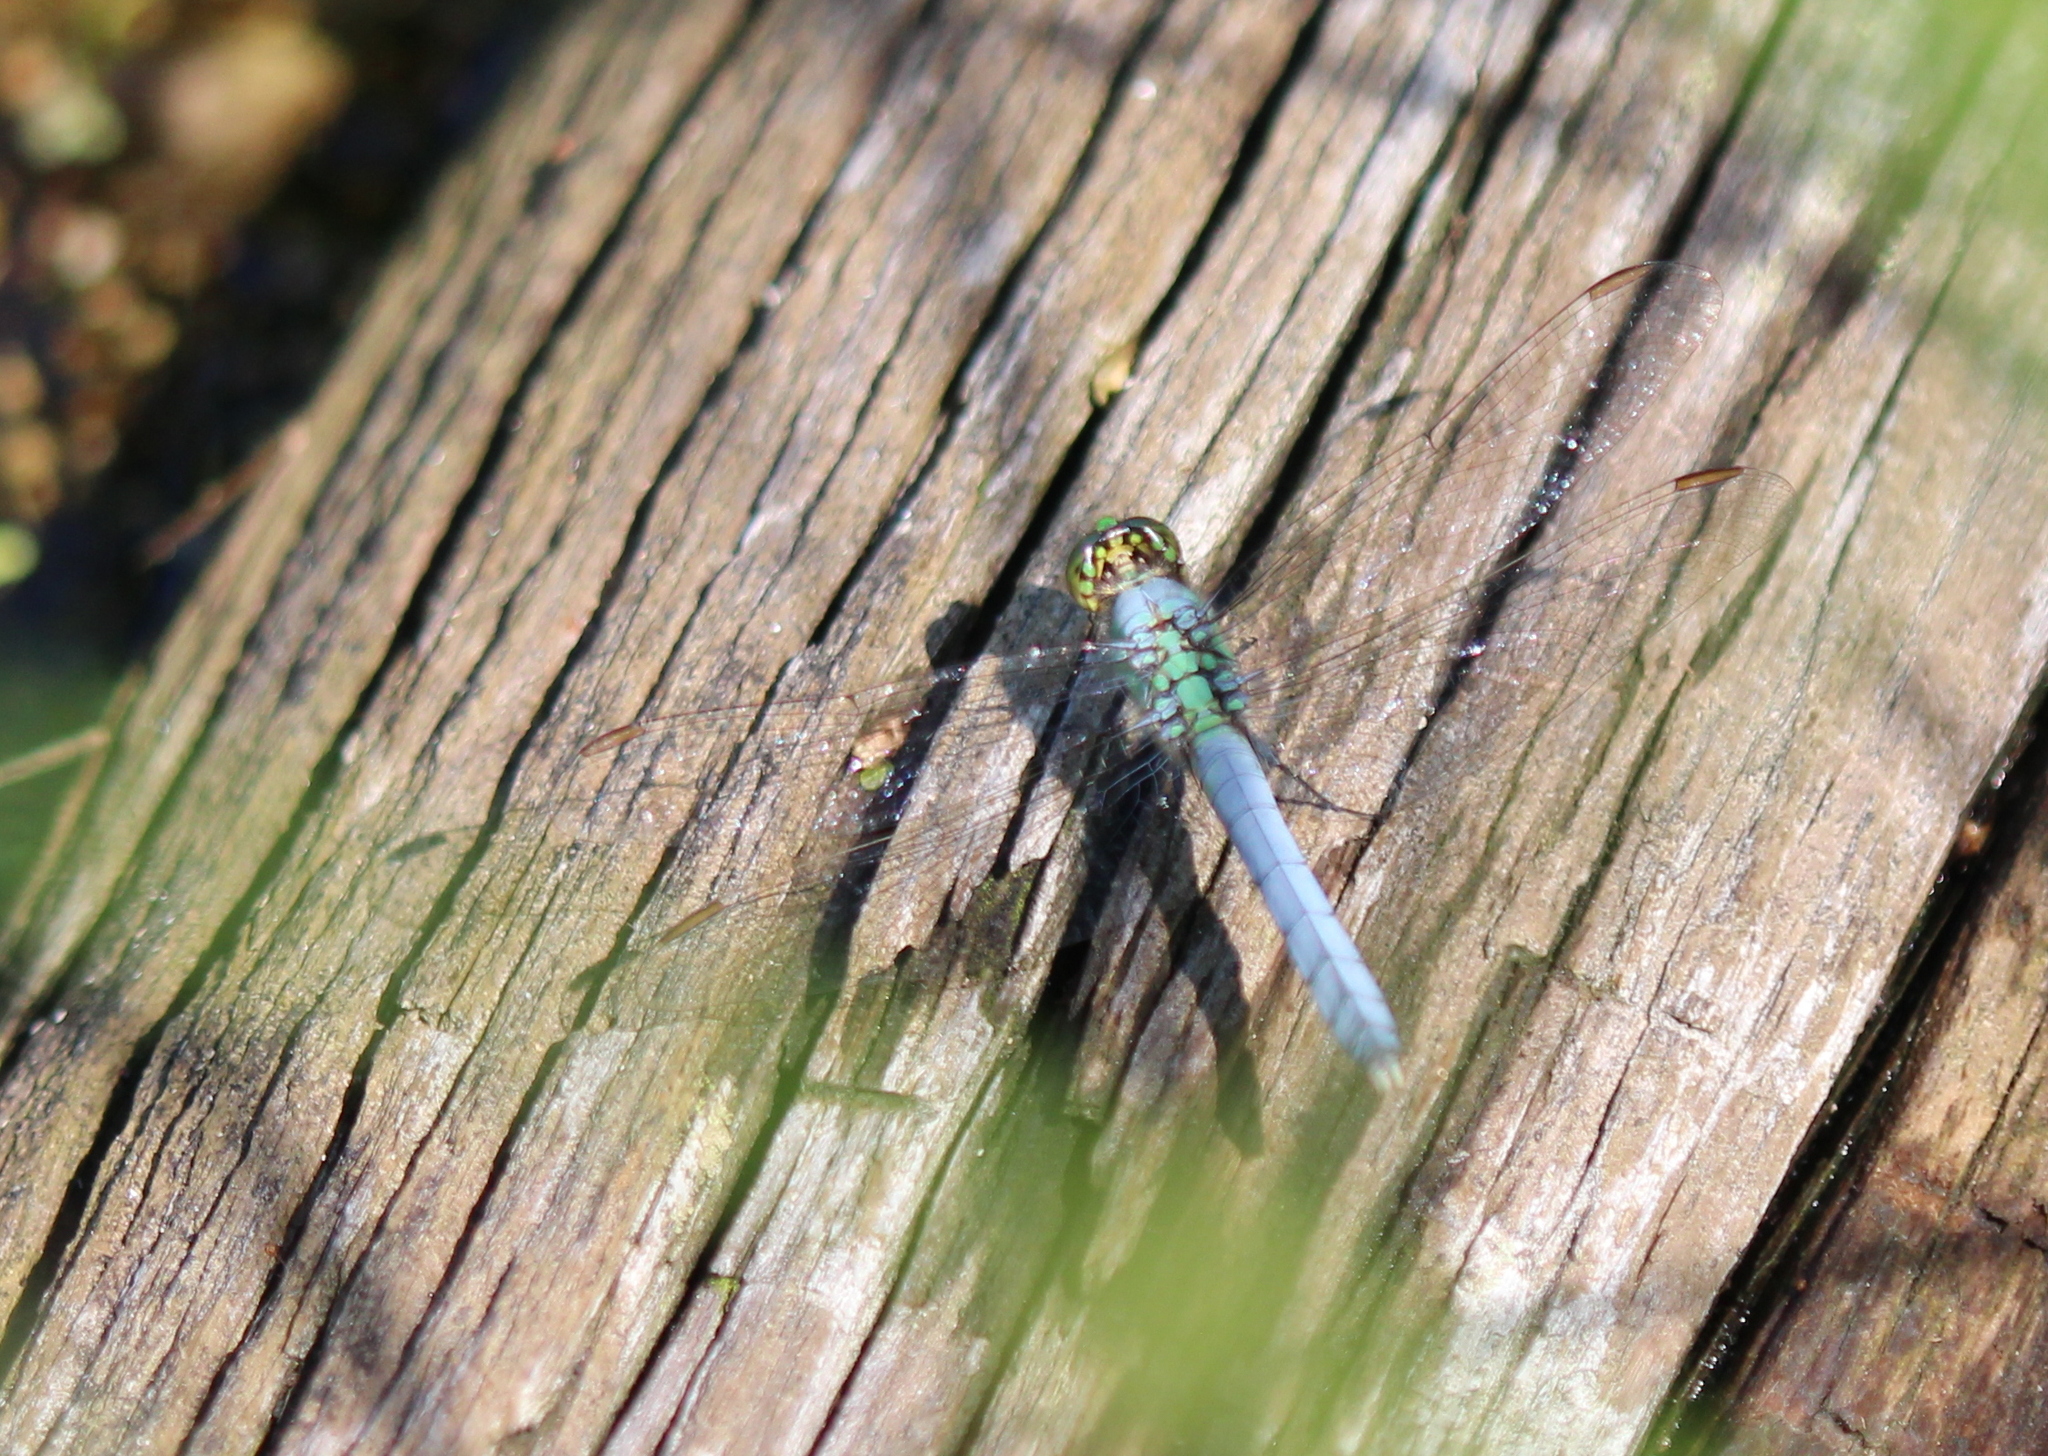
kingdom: Animalia
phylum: Arthropoda
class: Insecta
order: Odonata
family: Libellulidae
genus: Erythemis
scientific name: Erythemis simplicicollis
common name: Eastern pondhawk
